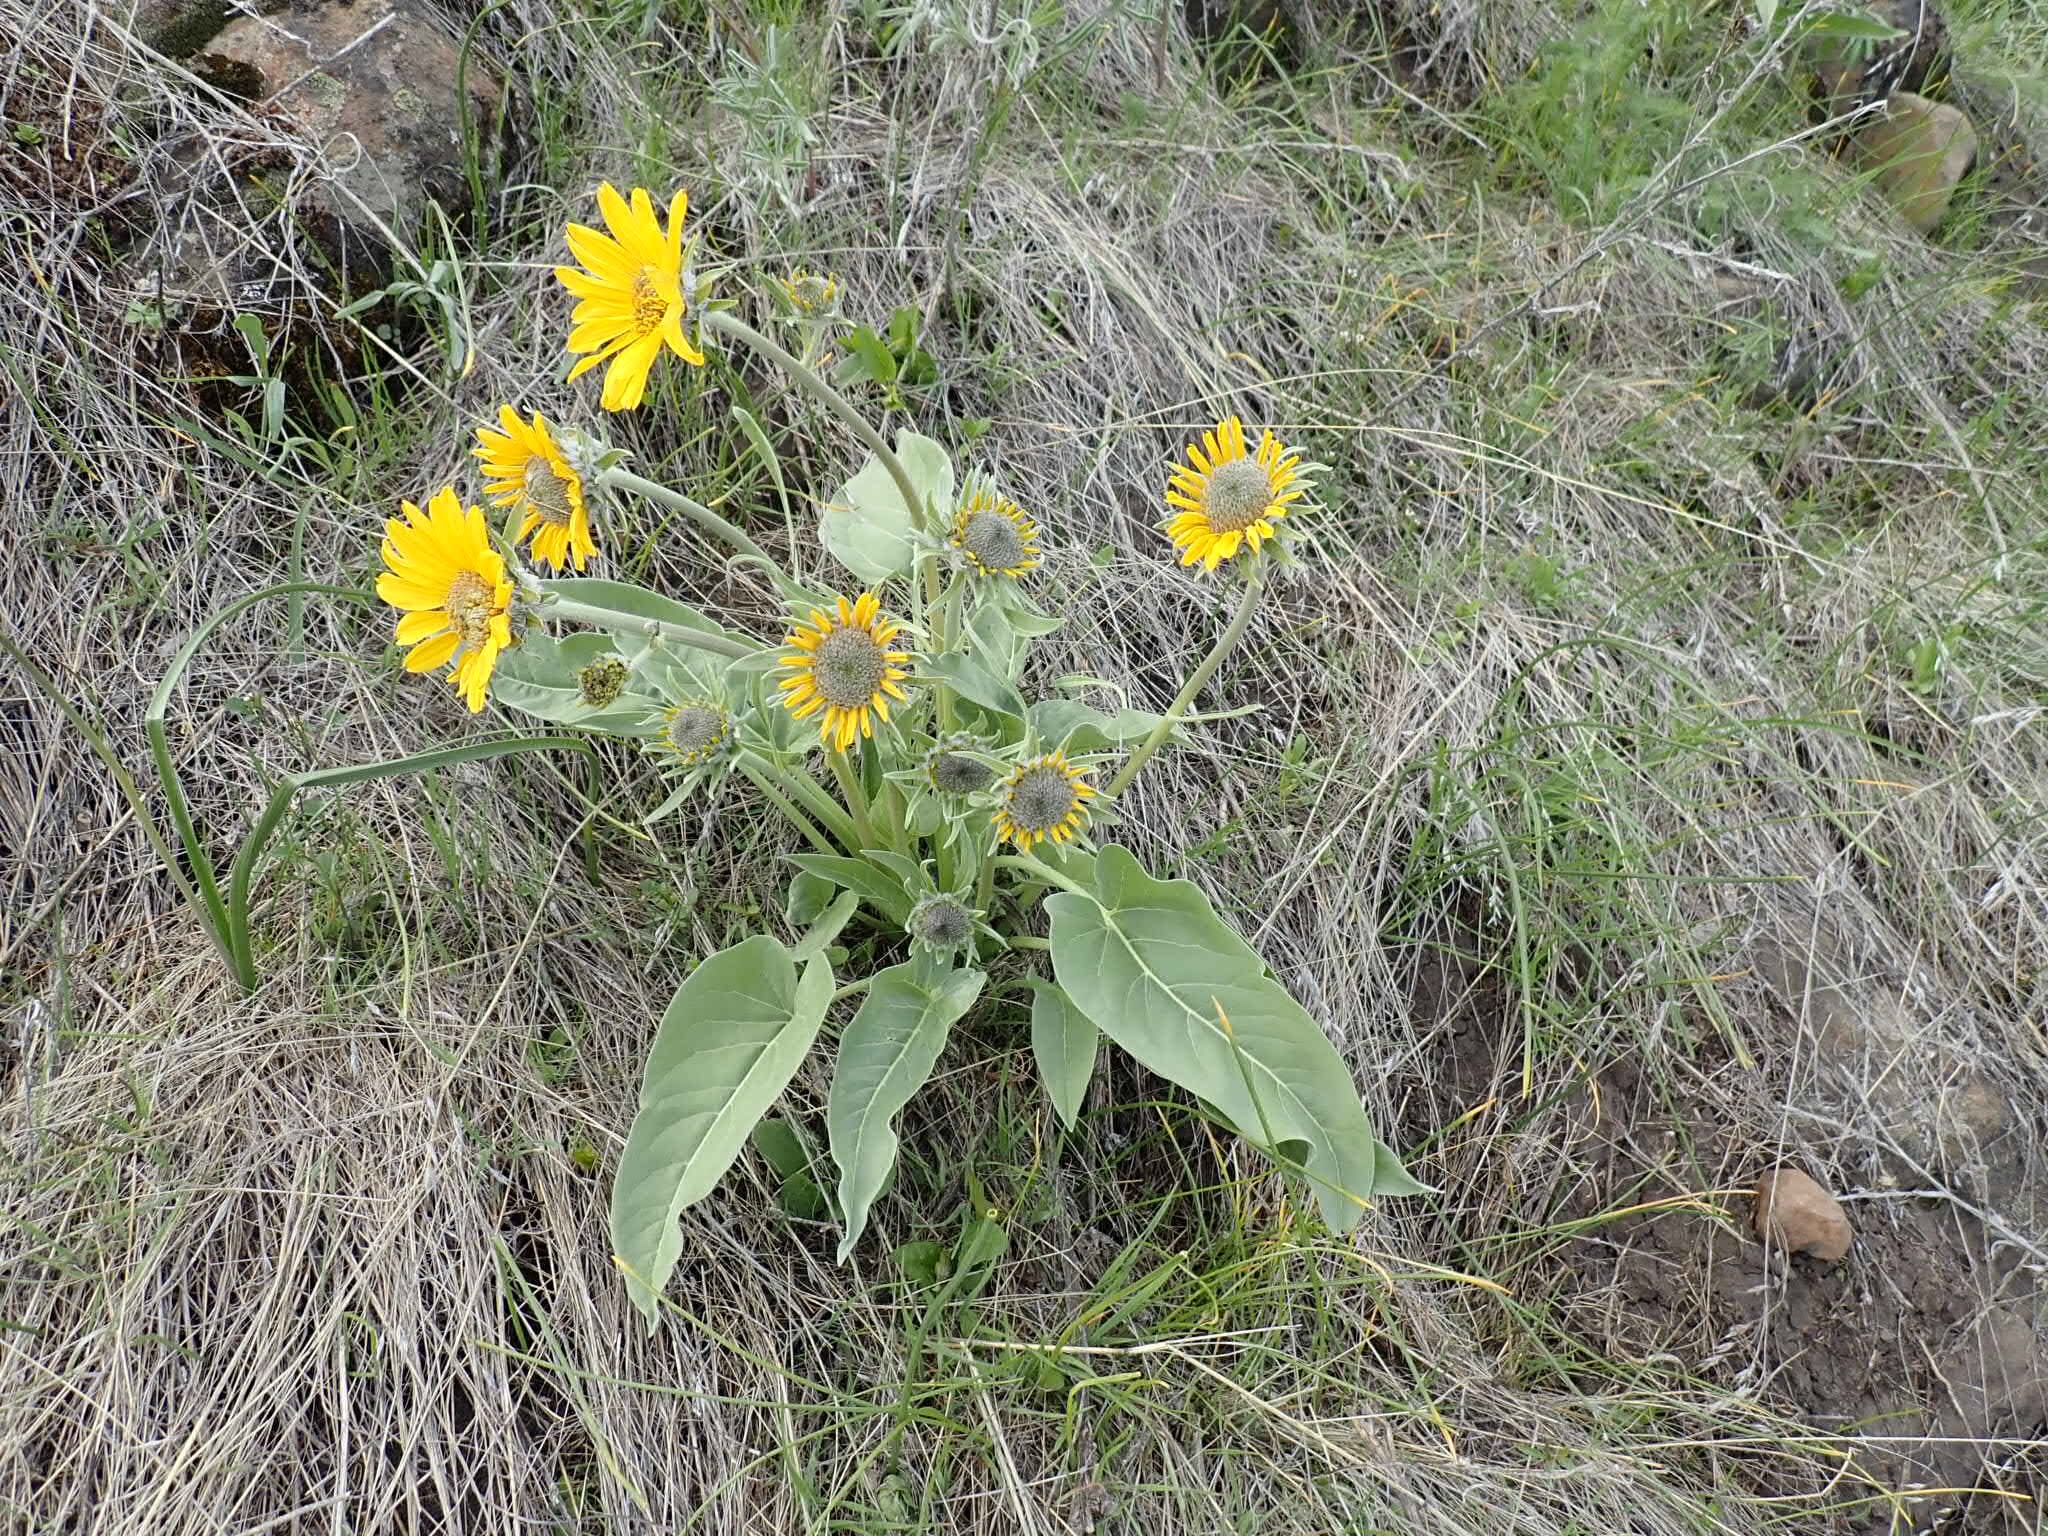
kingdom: Plantae
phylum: Tracheophyta
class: Magnoliopsida
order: Asterales
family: Asteraceae
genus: Wyethia
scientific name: Wyethia sagittata
